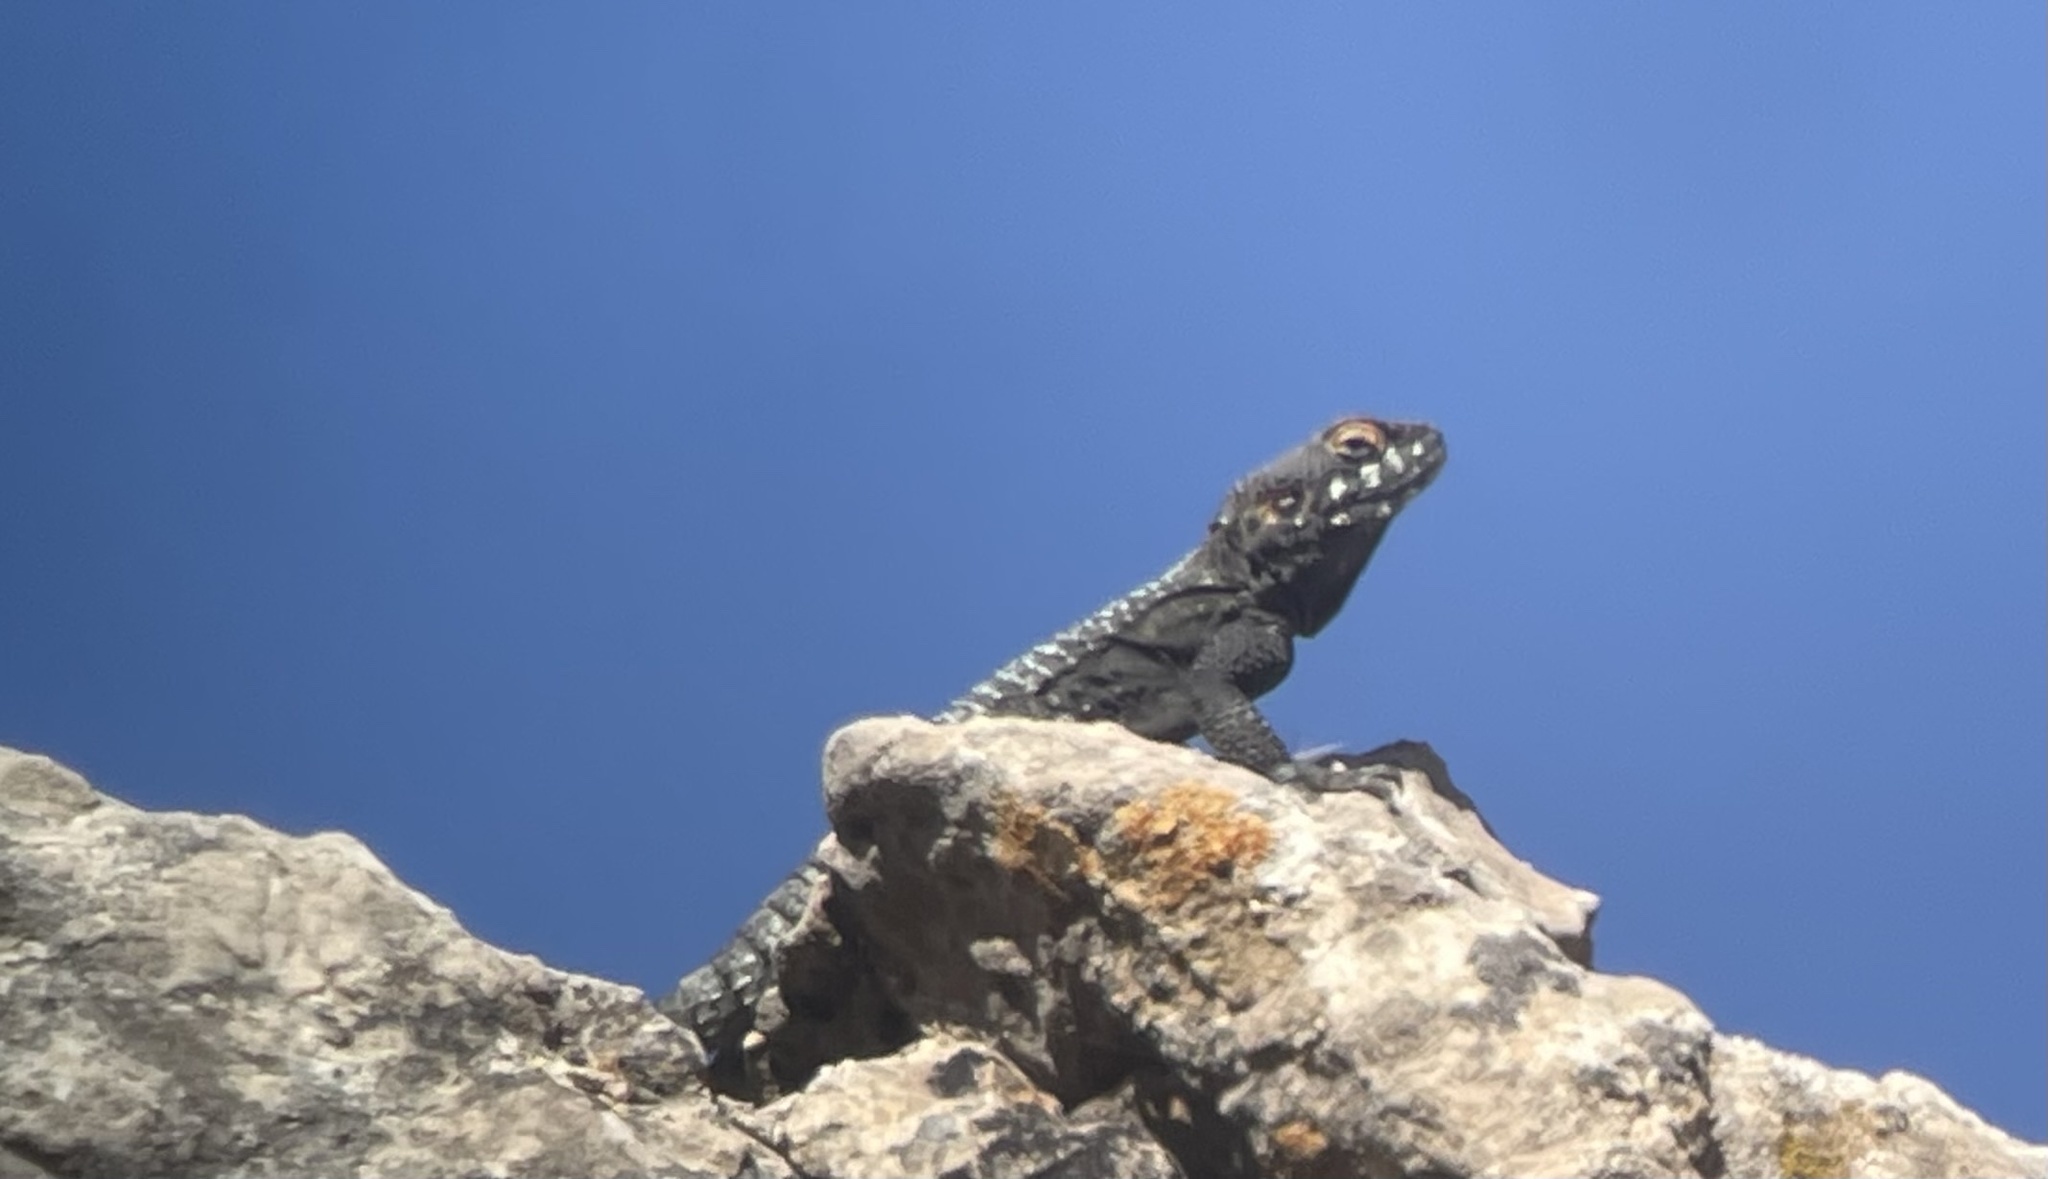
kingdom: Animalia
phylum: Chordata
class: Squamata
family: Agamidae
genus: Laudakia
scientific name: Laudakia vulgaris
